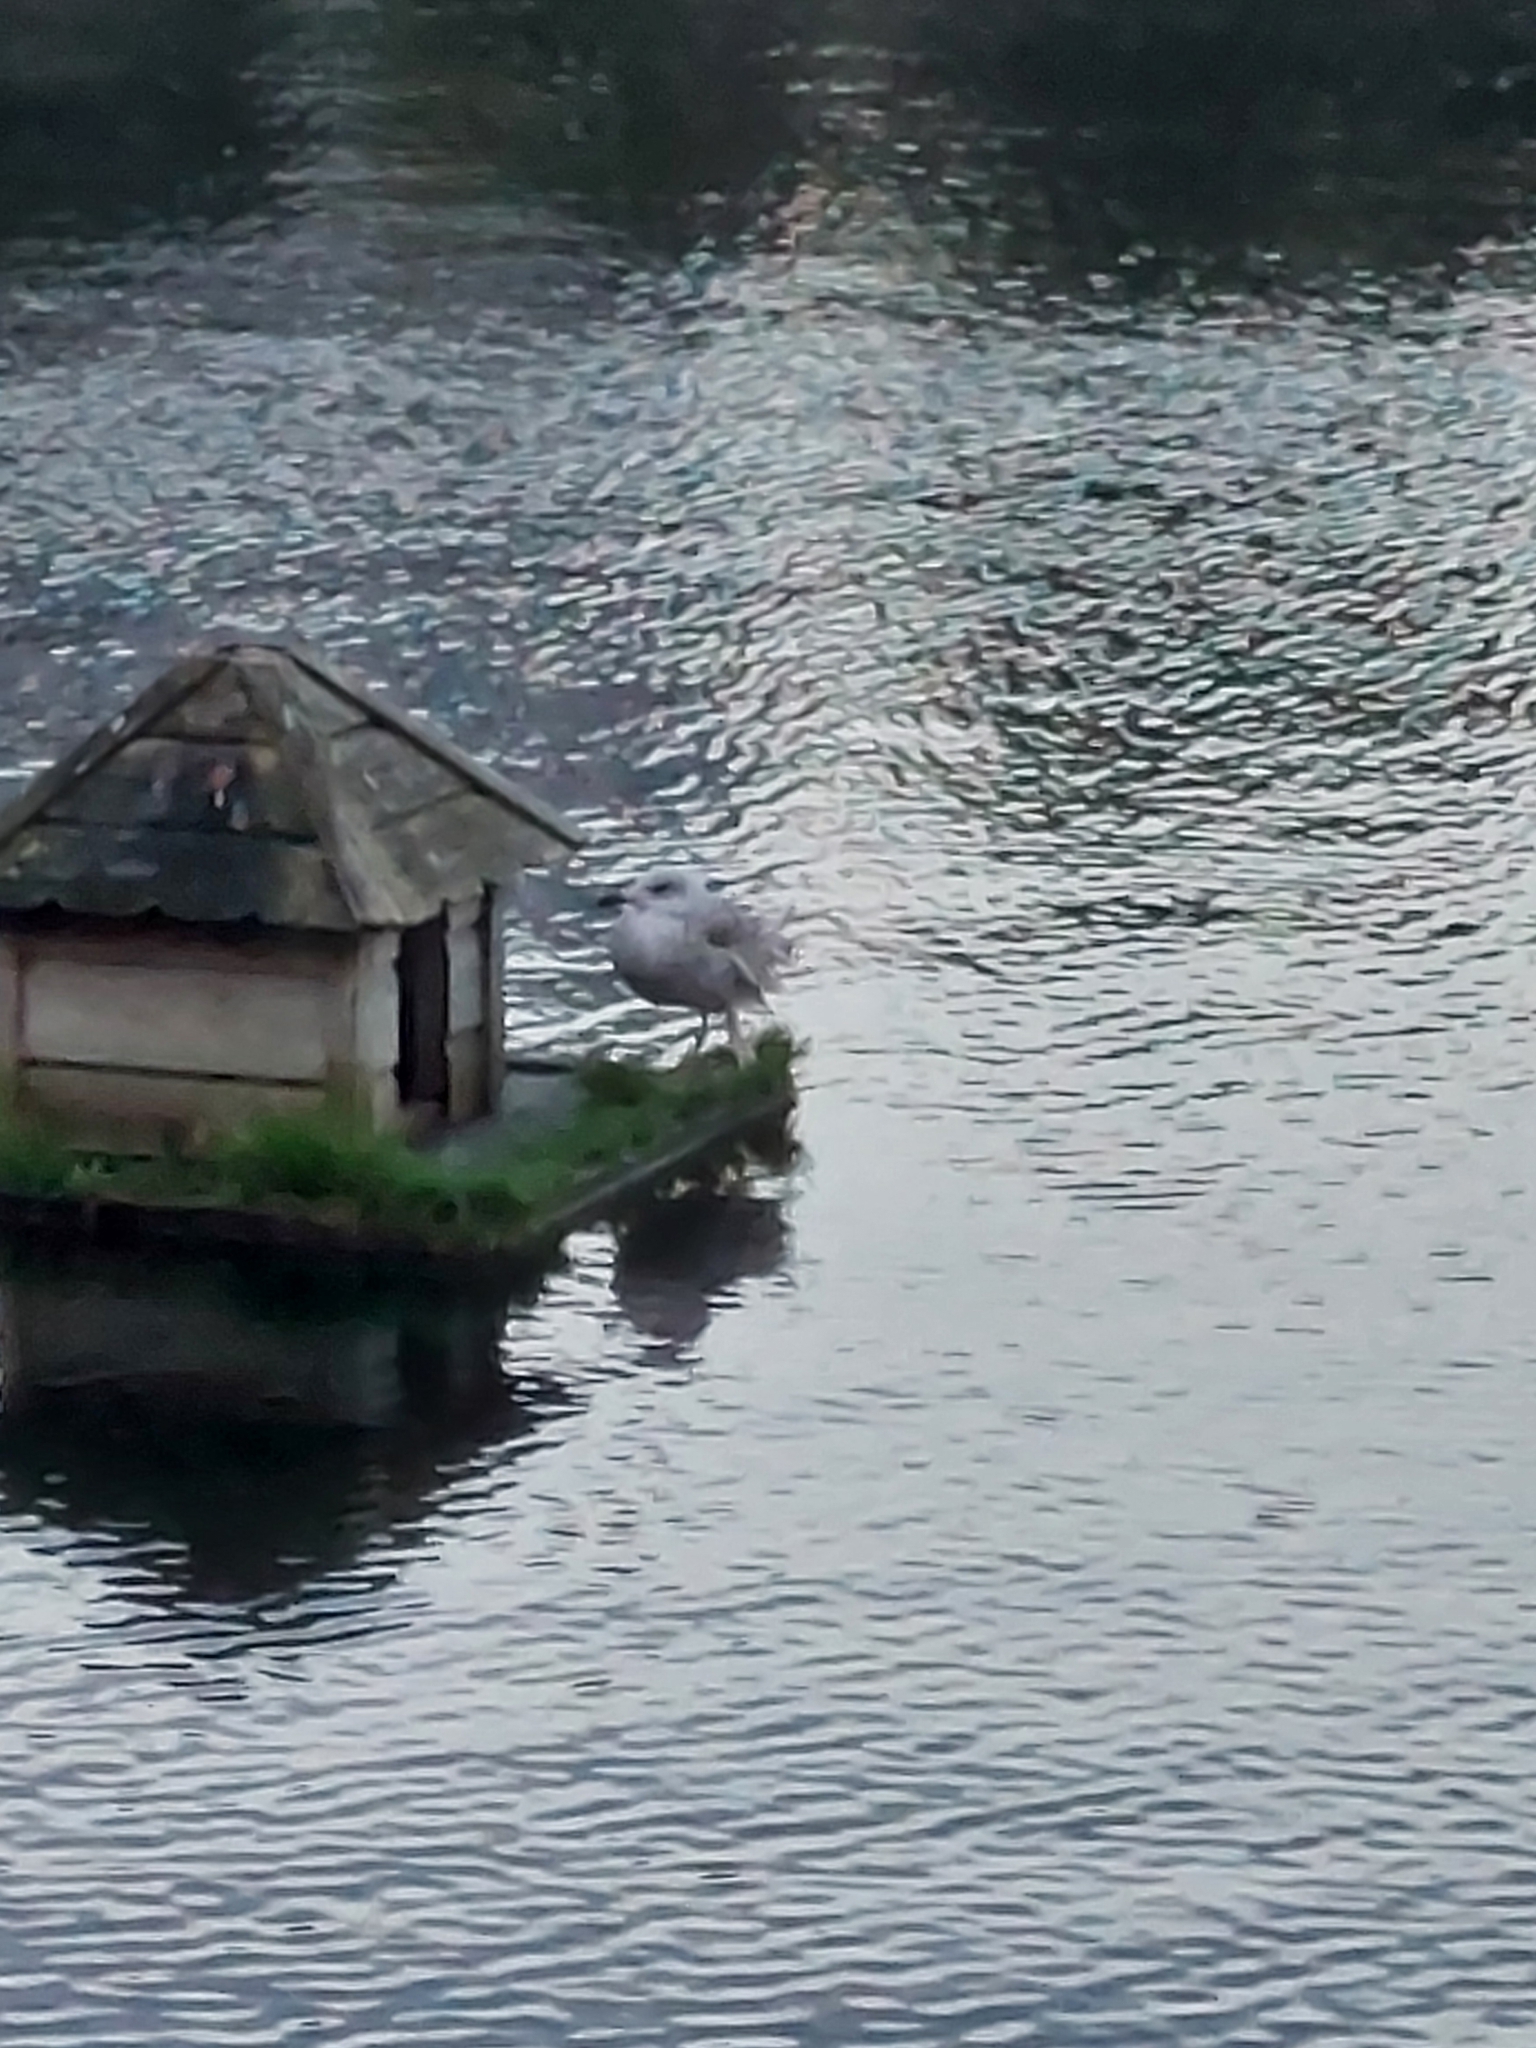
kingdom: Animalia
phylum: Chordata
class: Aves
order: Charadriiformes
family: Laridae
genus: Larus
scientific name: Larus argentatus
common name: Herring gull
